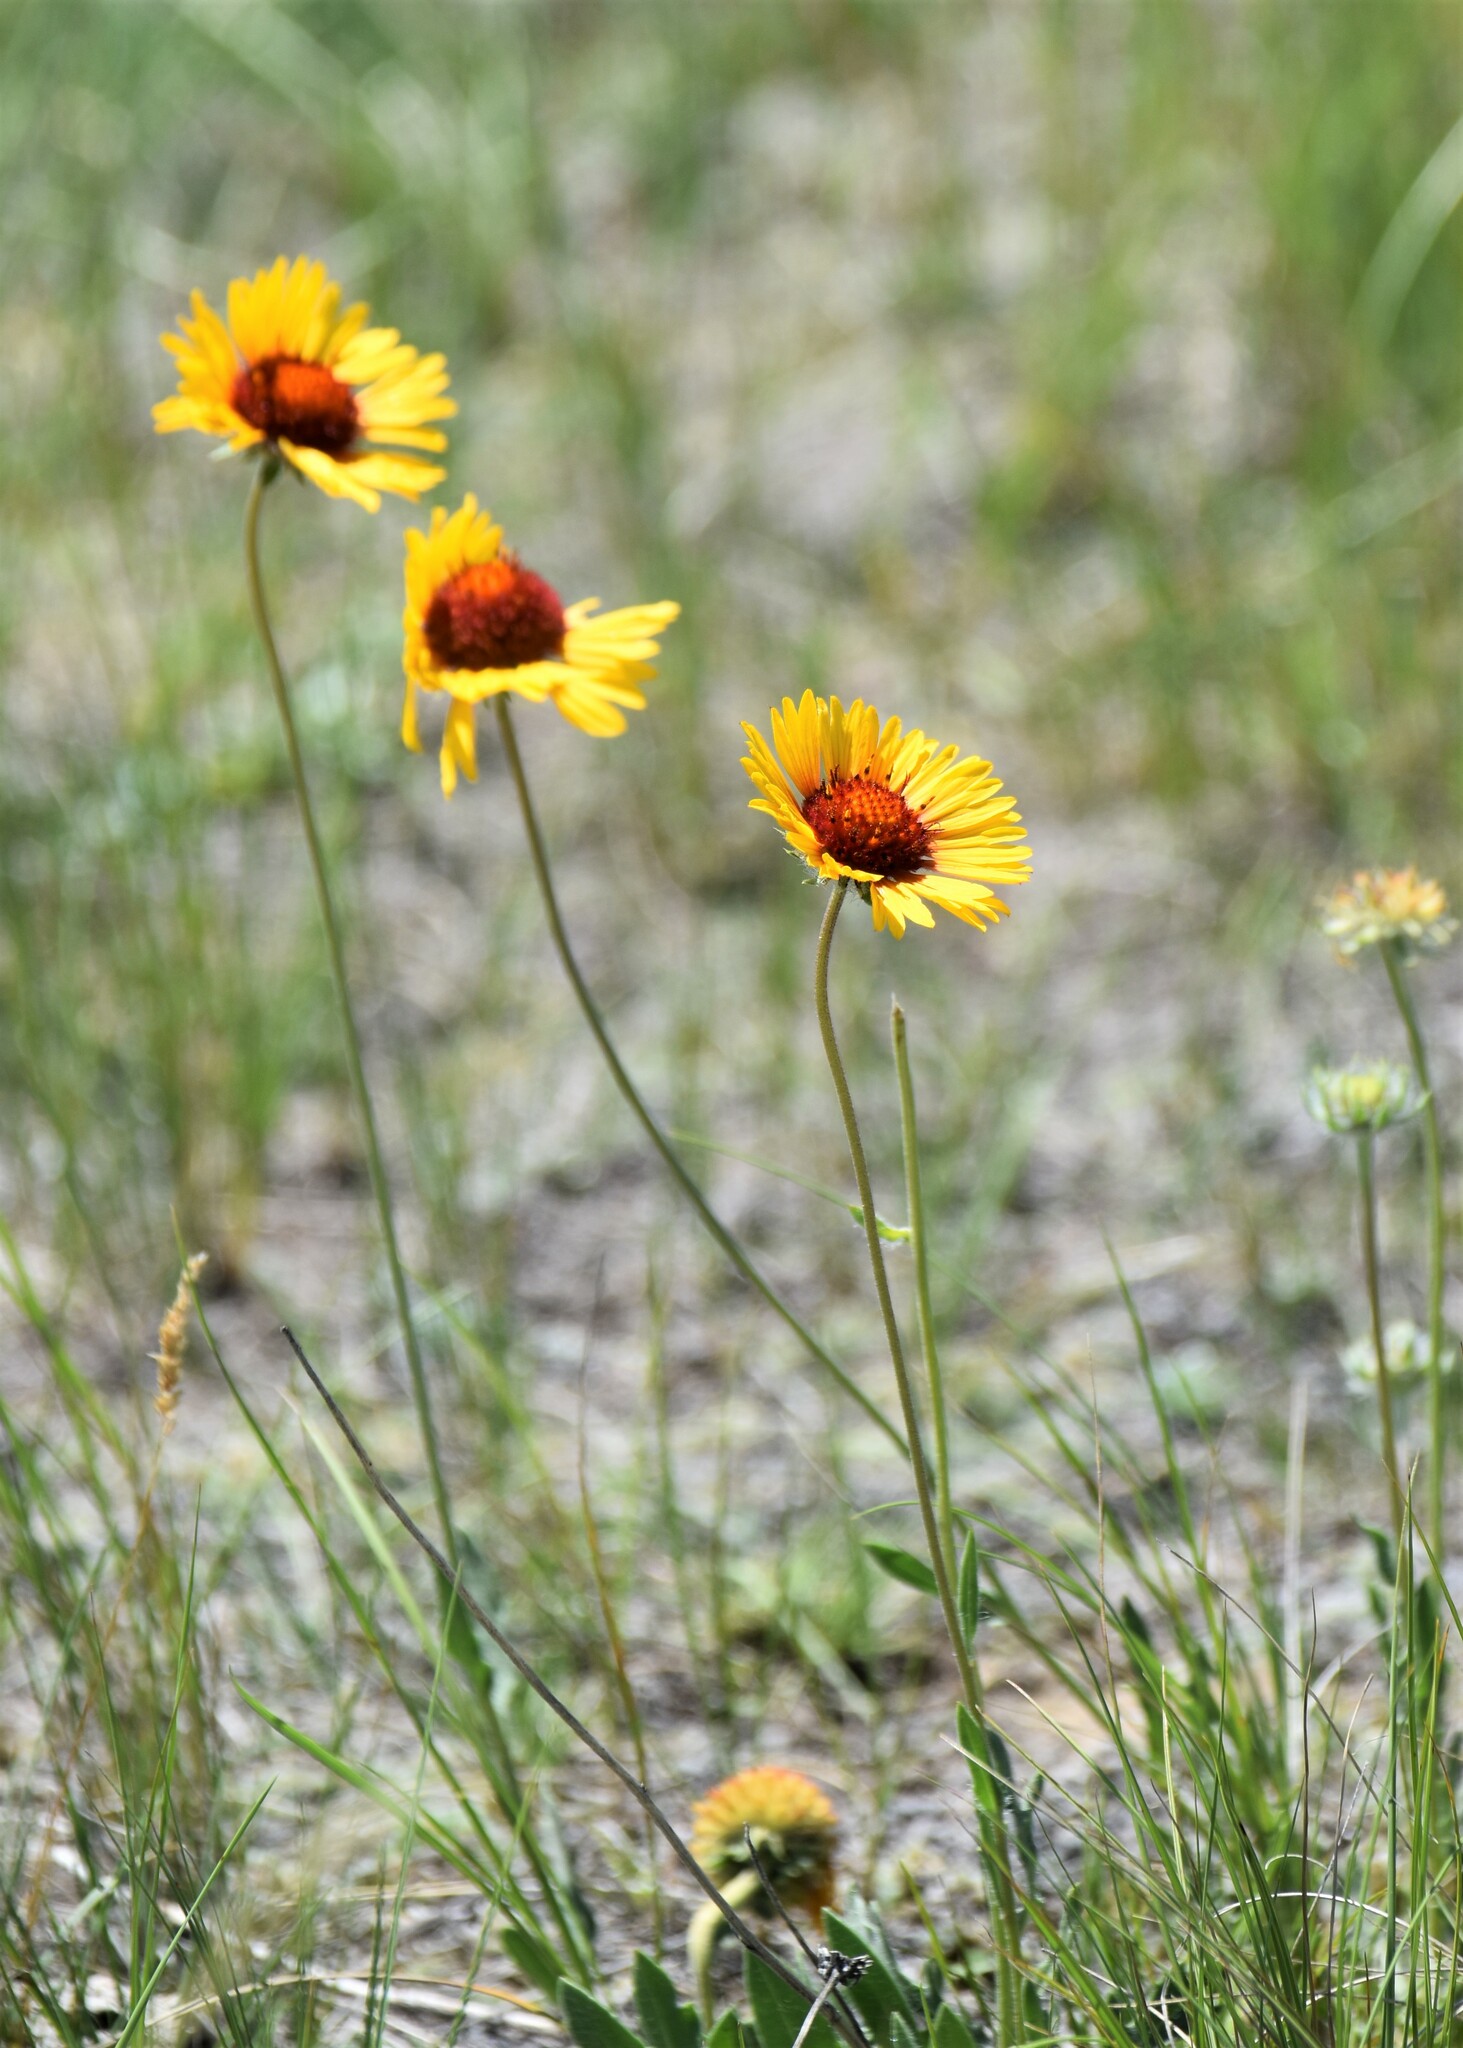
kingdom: Plantae
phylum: Tracheophyta
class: Magnoliopsida
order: Asterales
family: Asteraceae
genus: Gaillardia
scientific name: Gaillardia aristata
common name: Blanket-flower
